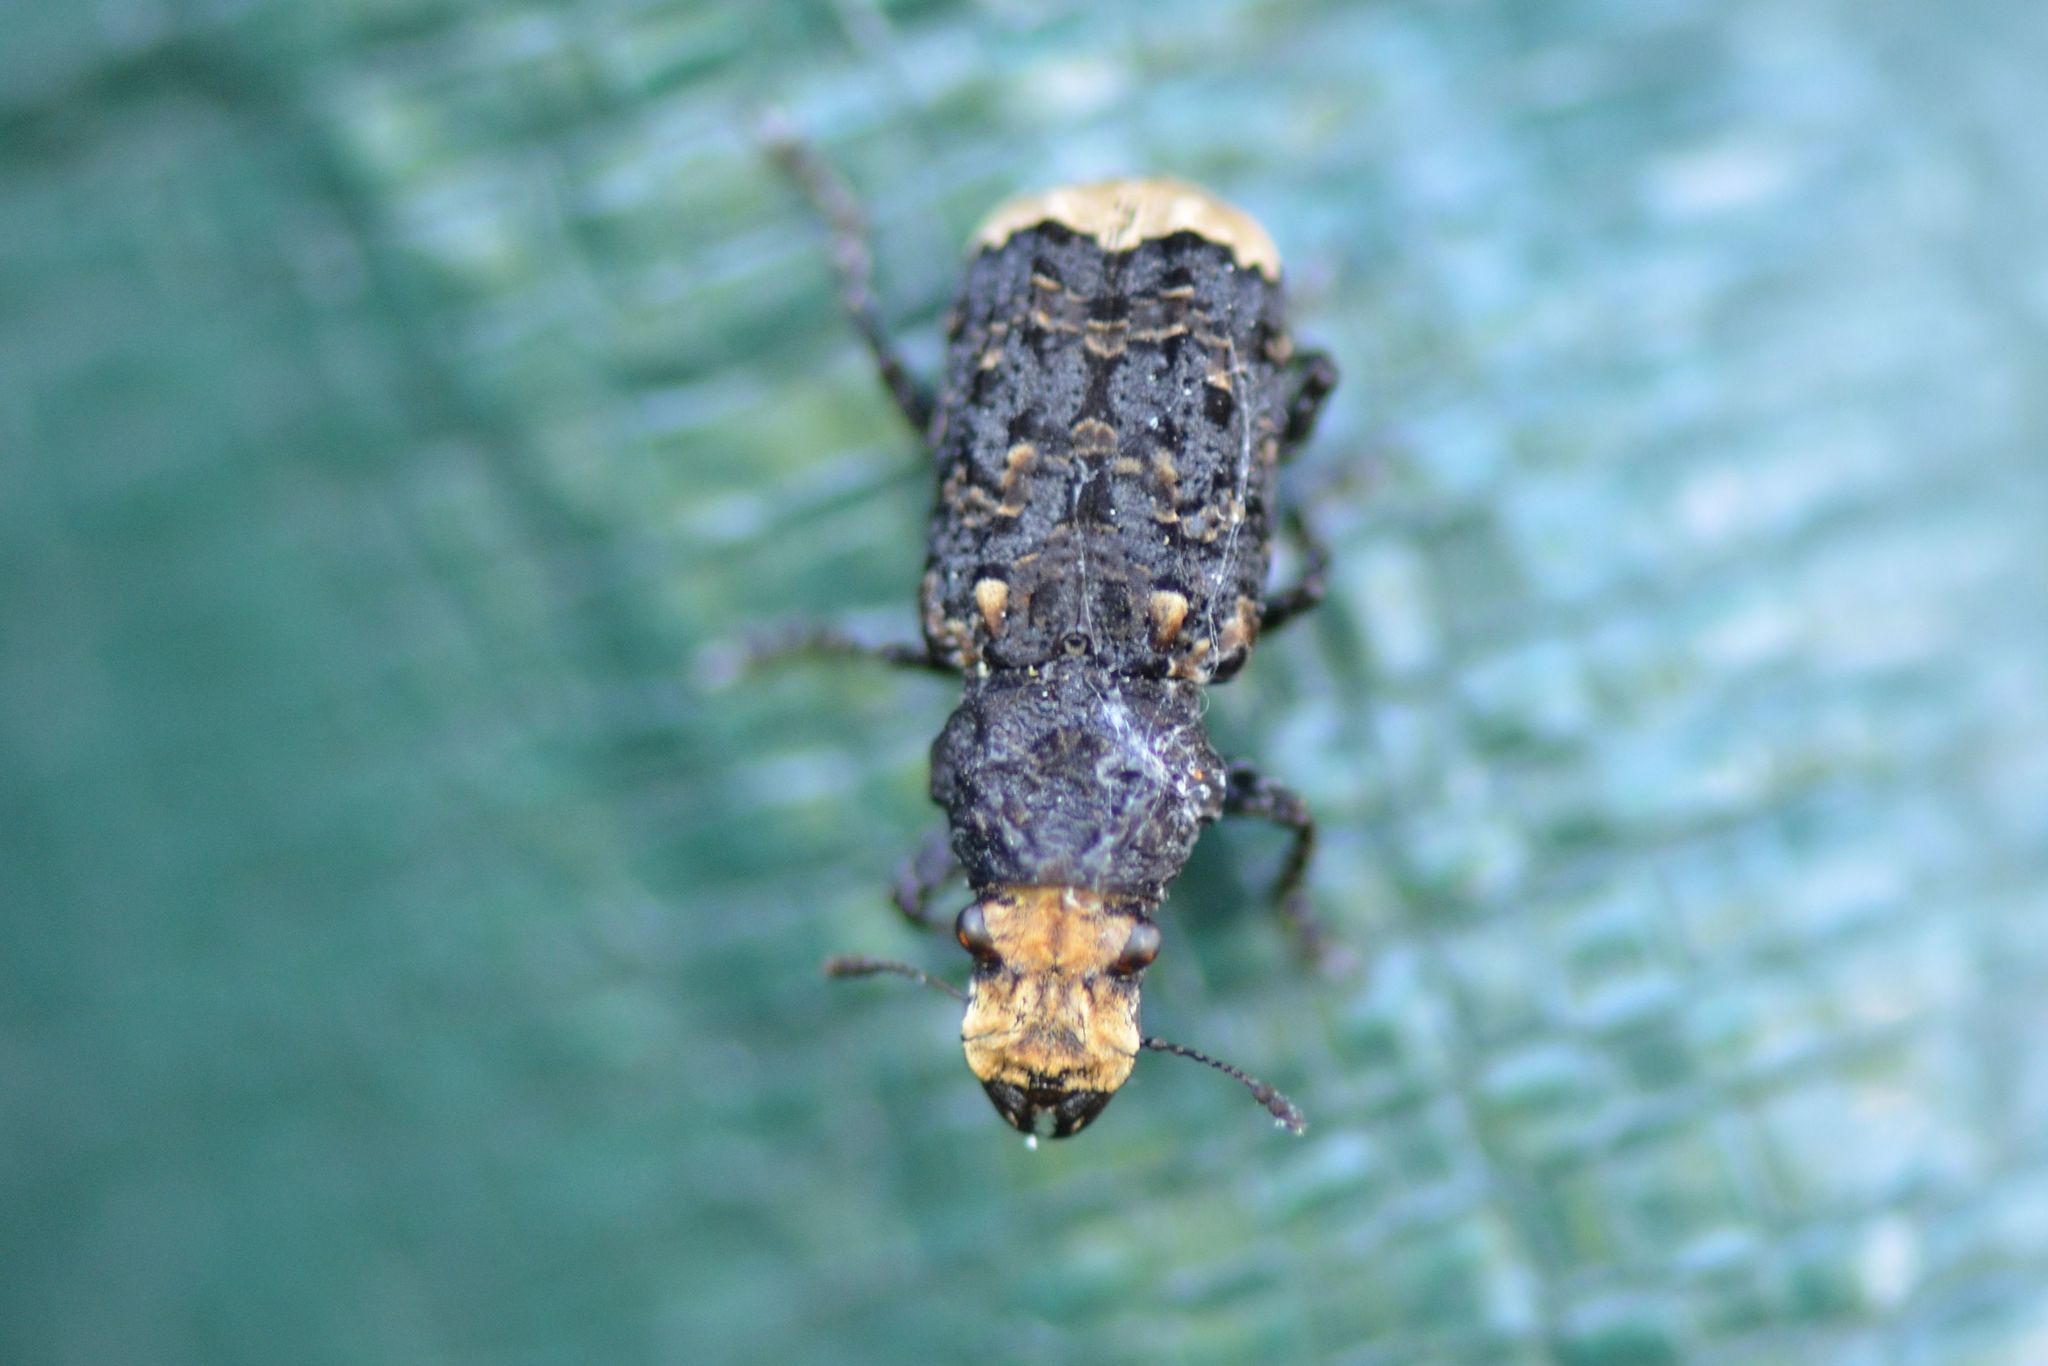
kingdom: Animalia
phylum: Arthropoda
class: Insecta
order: Coleoptera
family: Anthribidae
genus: Platyrhinus
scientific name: Platyrhinus resinosus
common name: Cramp-ball fungus weevil
